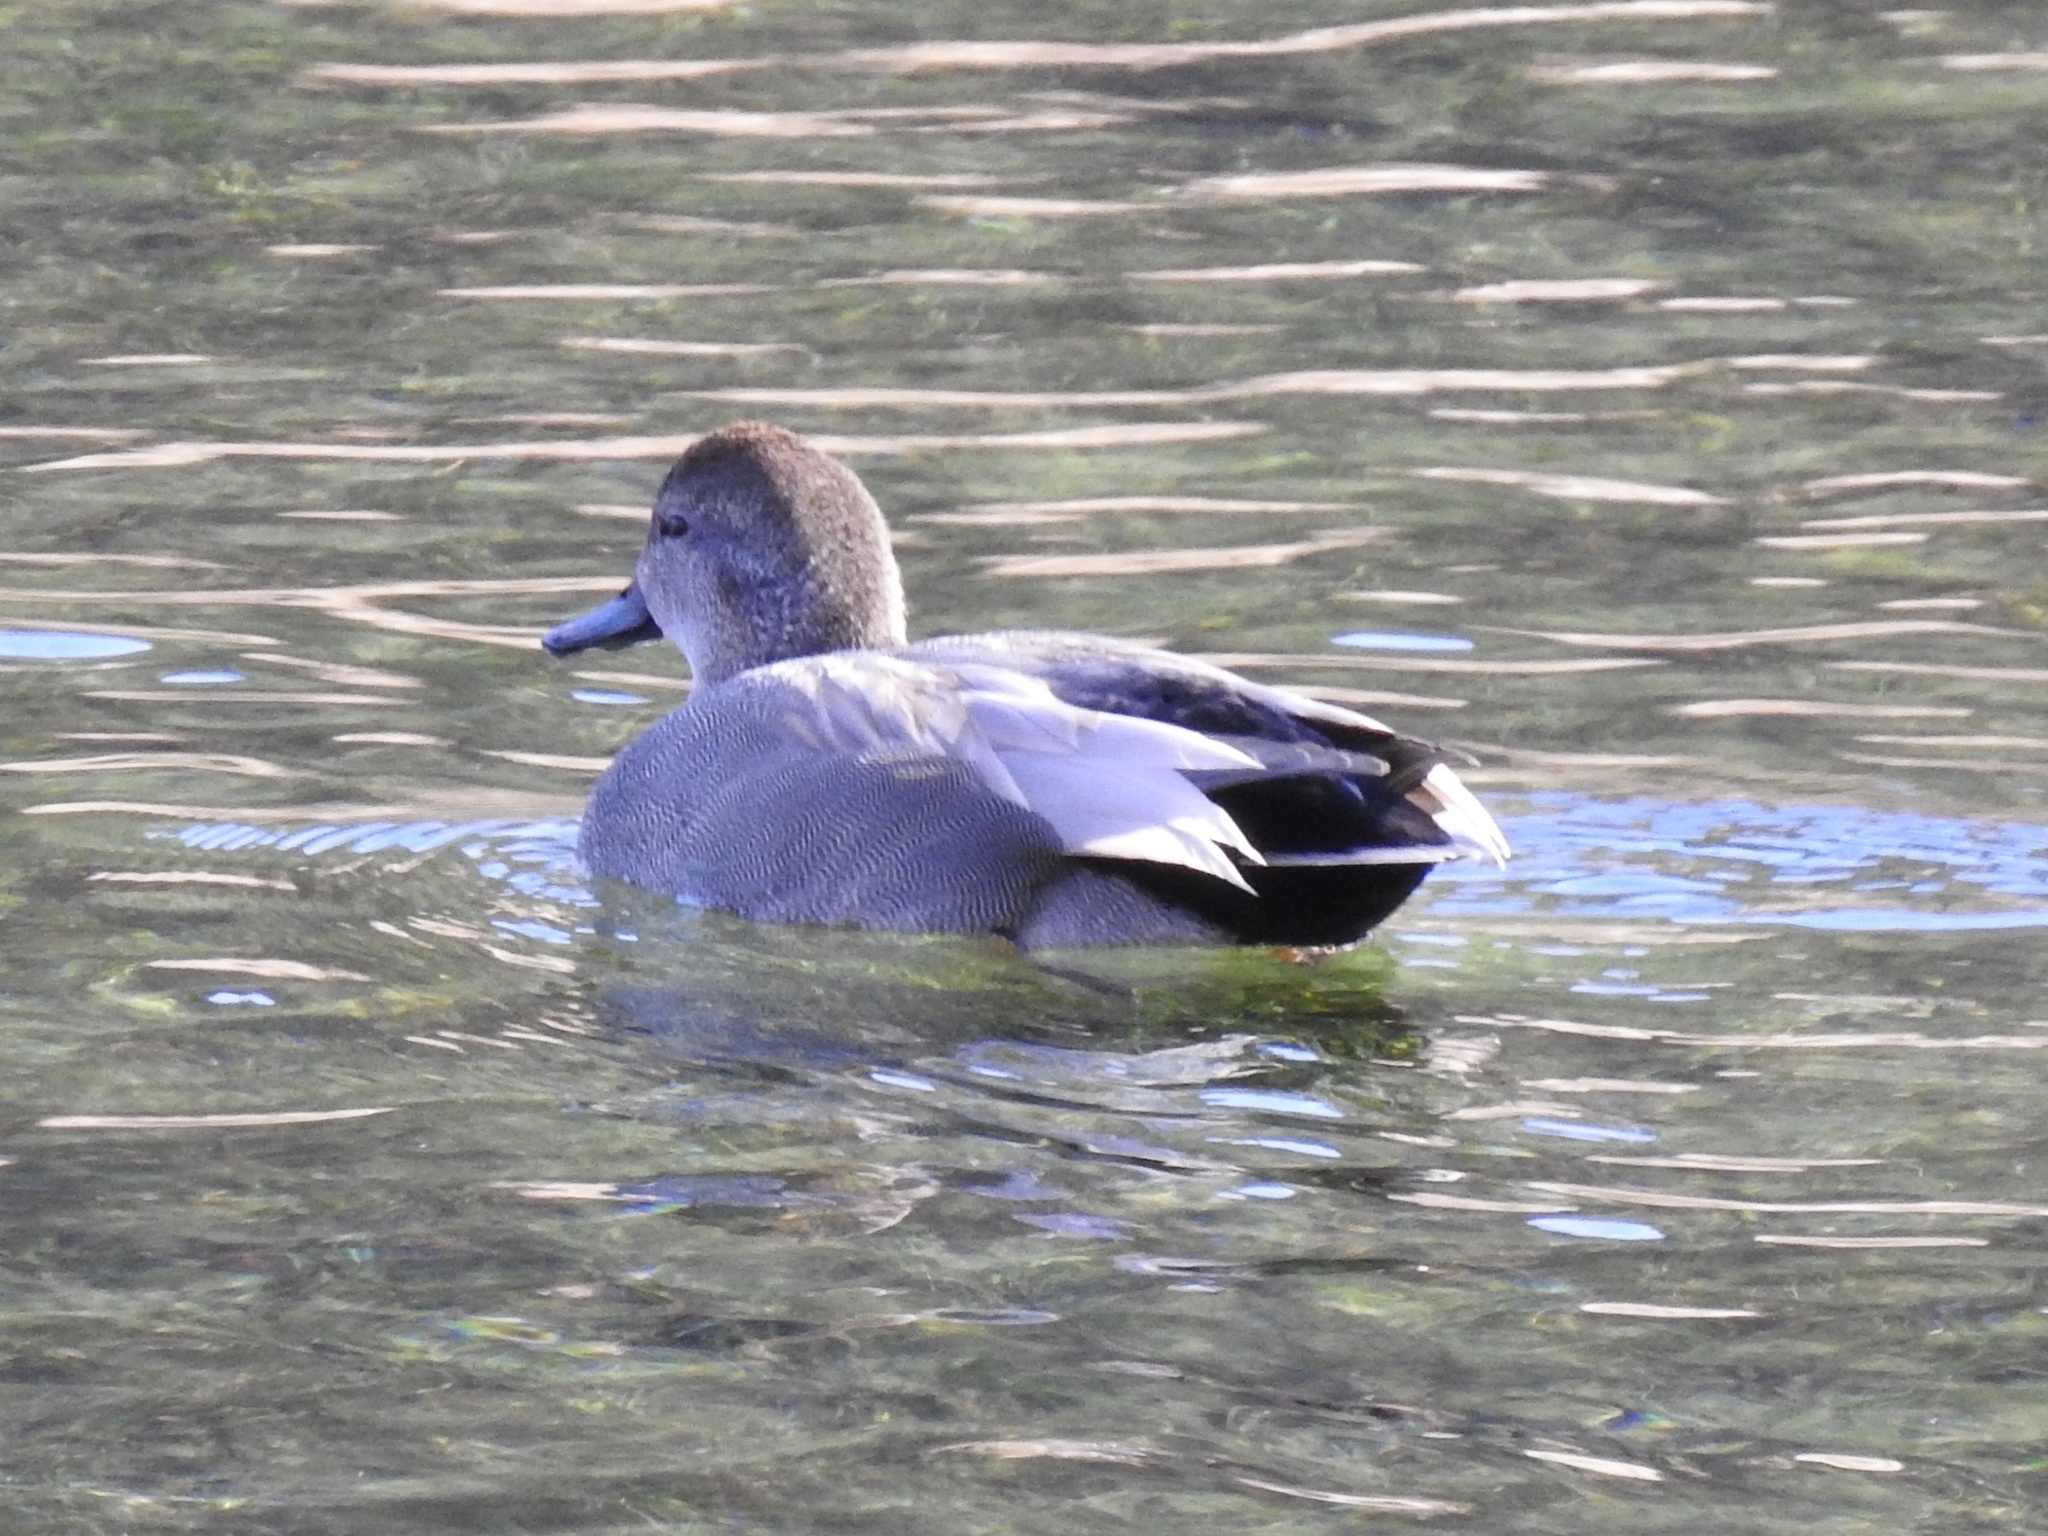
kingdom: Animalia
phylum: Chordata
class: Aves
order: Anseriformes
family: Anatidae
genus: Mareca
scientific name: Mareca strepera
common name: Gadwall
